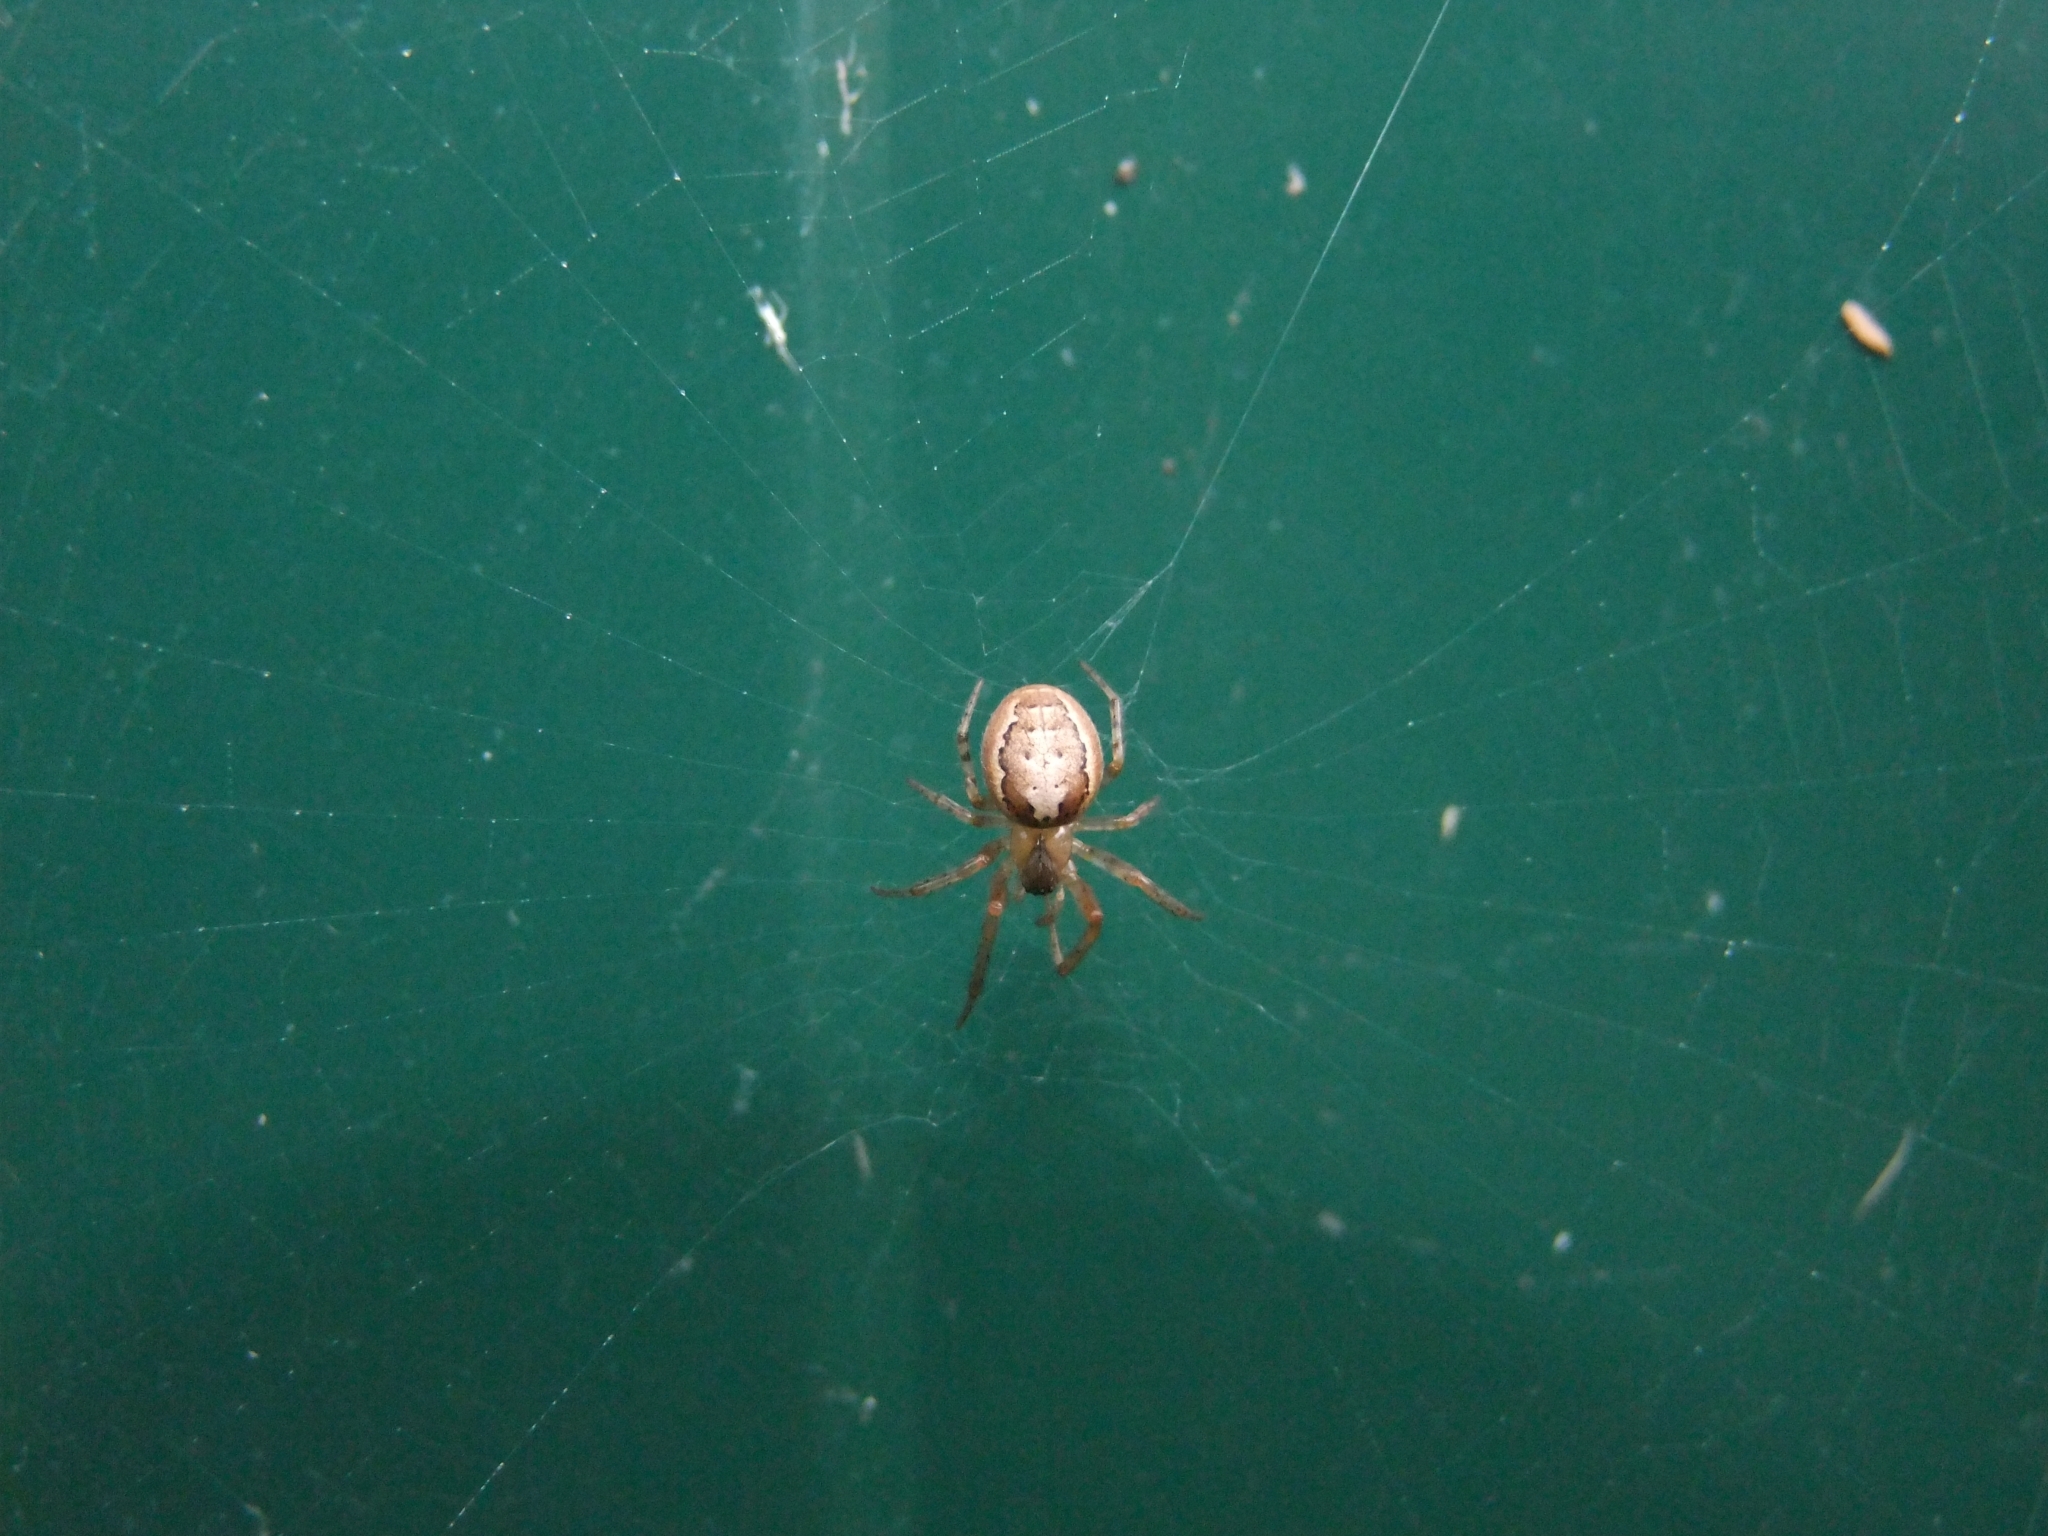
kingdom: Animalia
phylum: Arthropoda
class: Arachnida
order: Araneae
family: Araneidae
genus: Zygiella
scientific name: Zygiella x-notata
